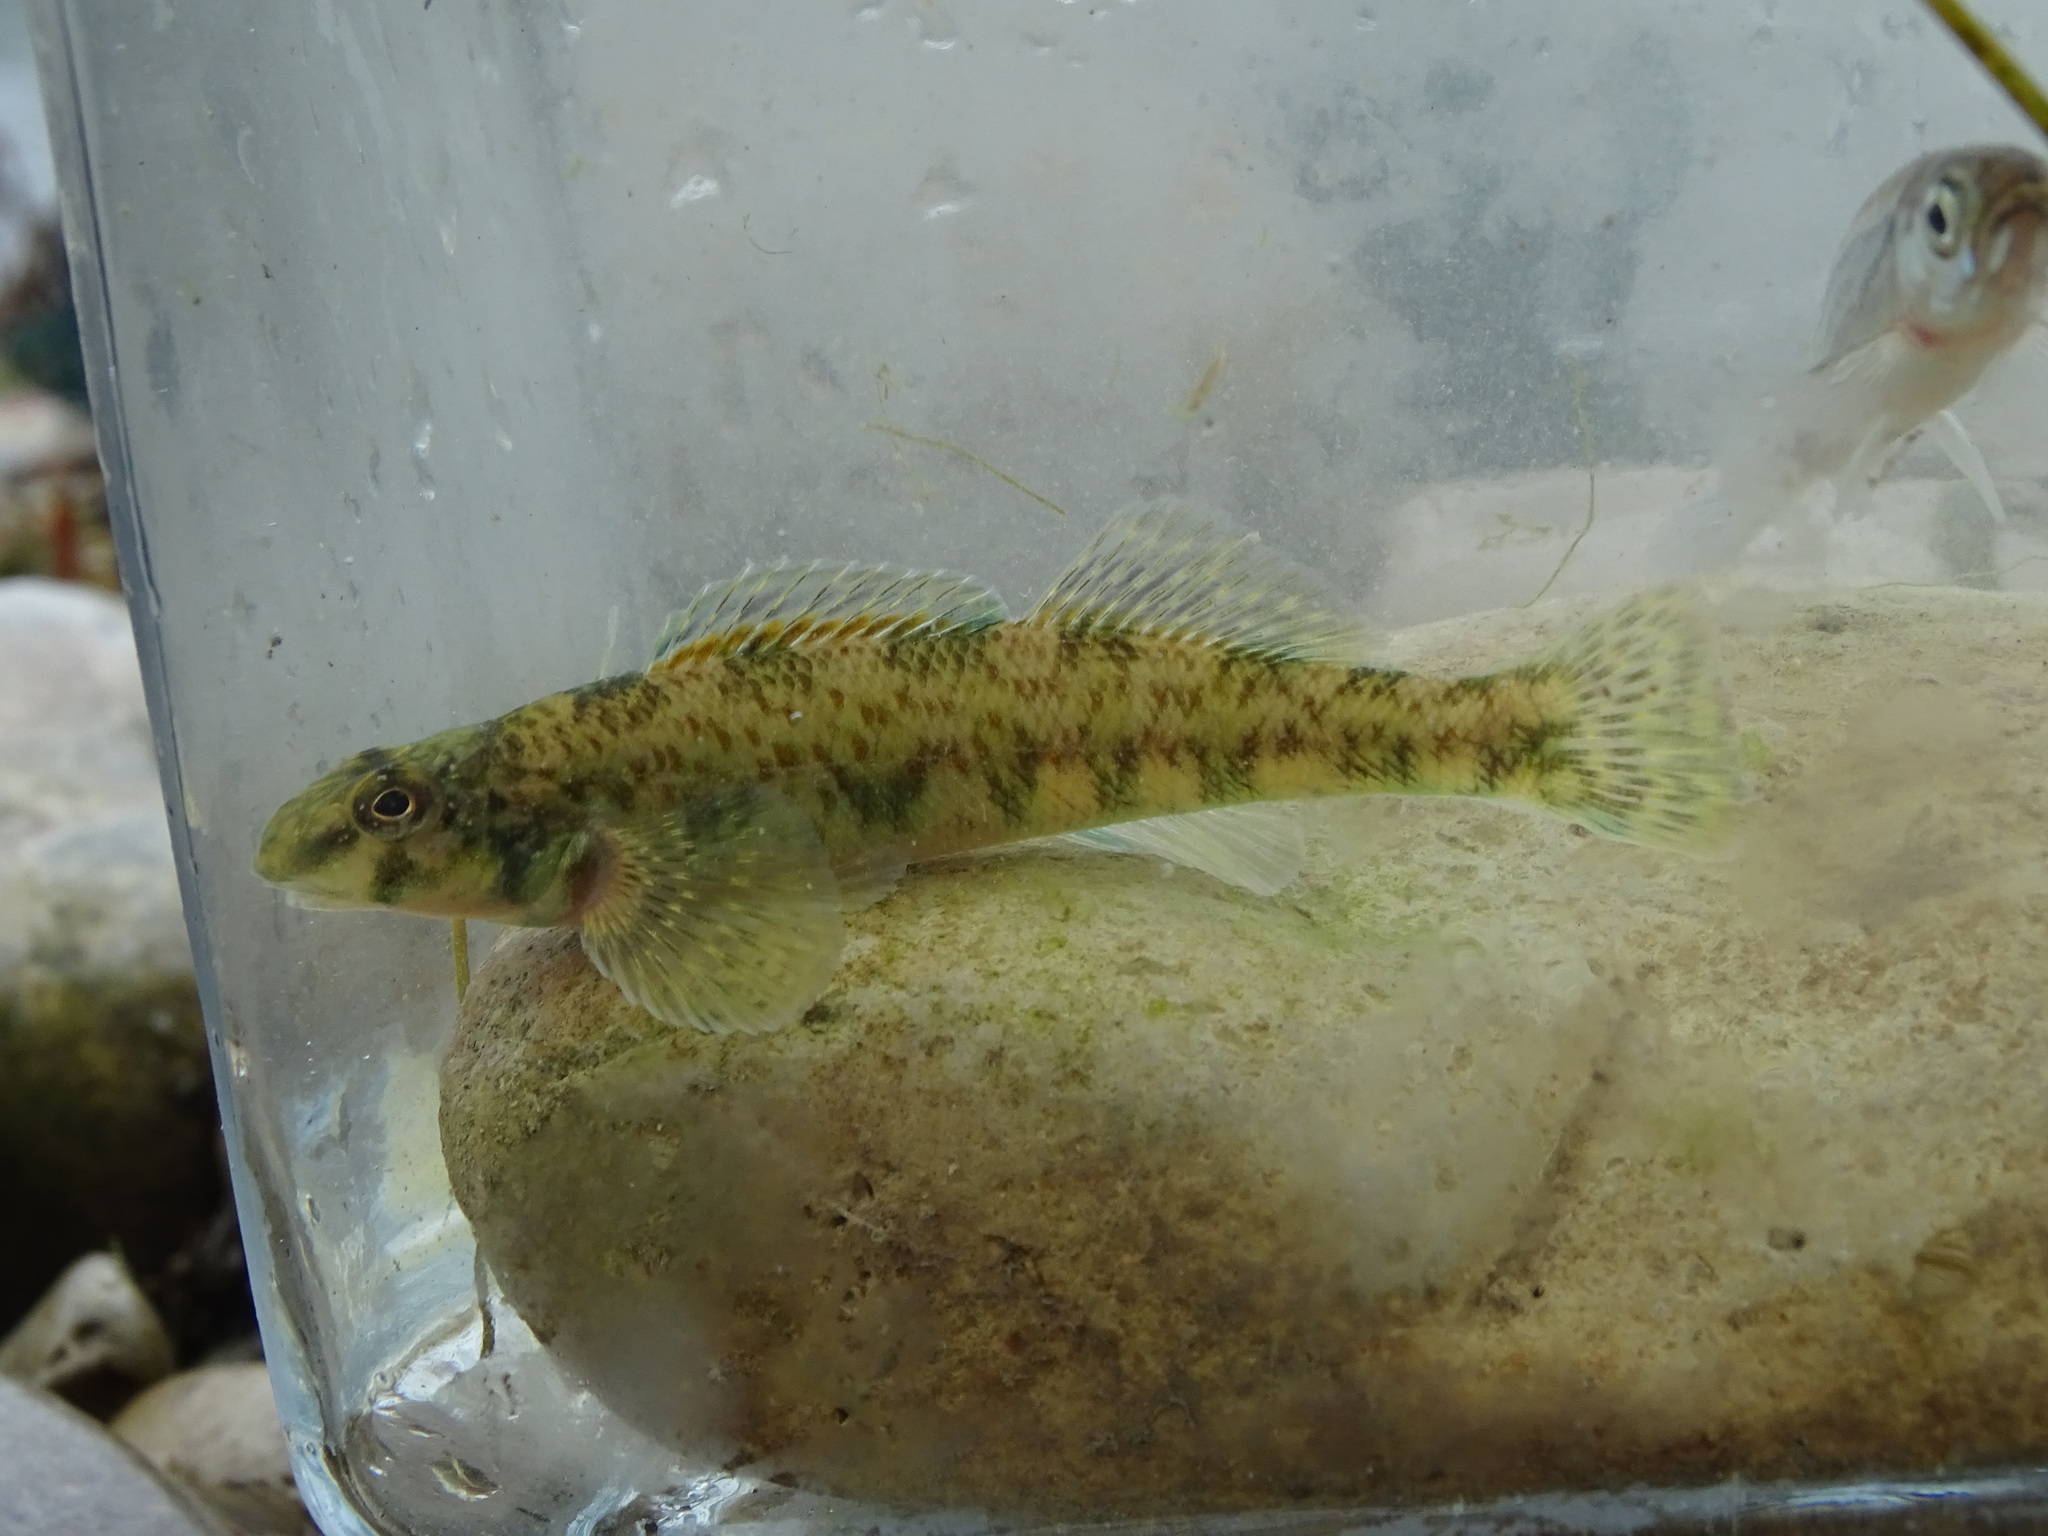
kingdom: Animalia
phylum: Chordata
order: Perciformes
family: Percidae
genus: Etheostoma
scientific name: Etheostoma blennioides
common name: Greenside darter
